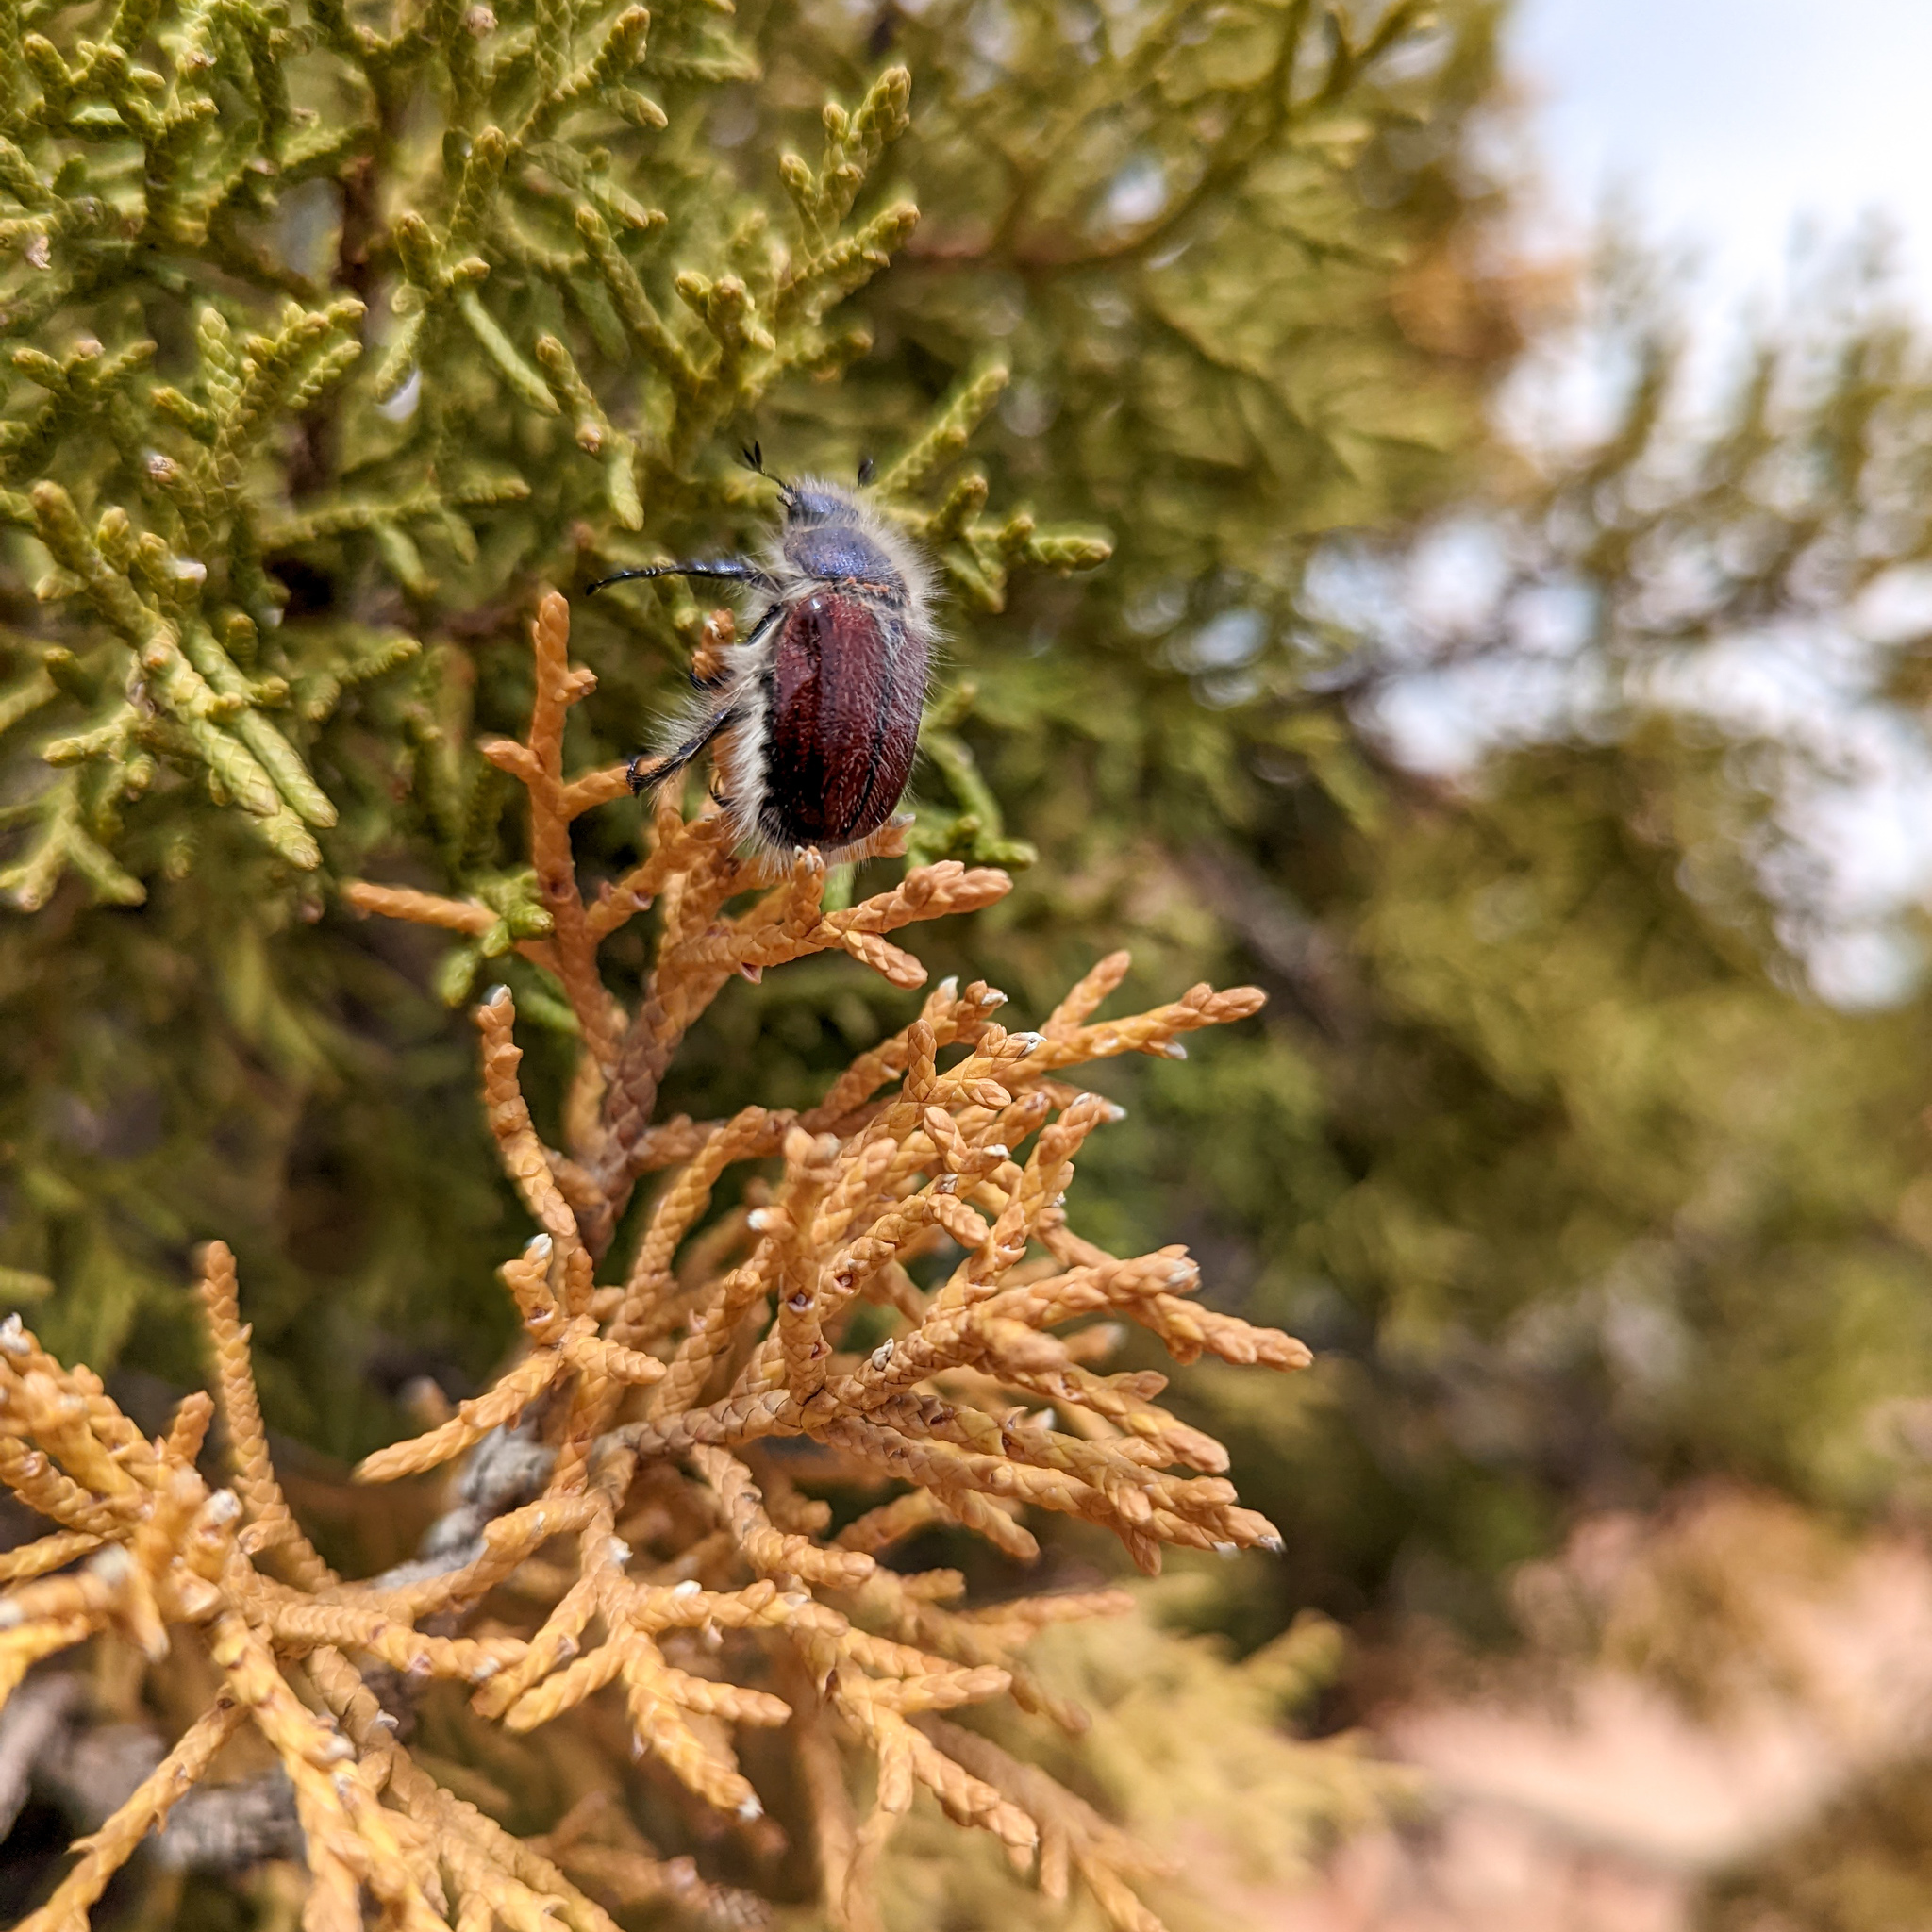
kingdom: Animalia
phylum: Arthropoda
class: Insecta
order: Coleoptera
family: Scarabaeidae
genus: Paracotalpa
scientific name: Paracotalpa granicollis
